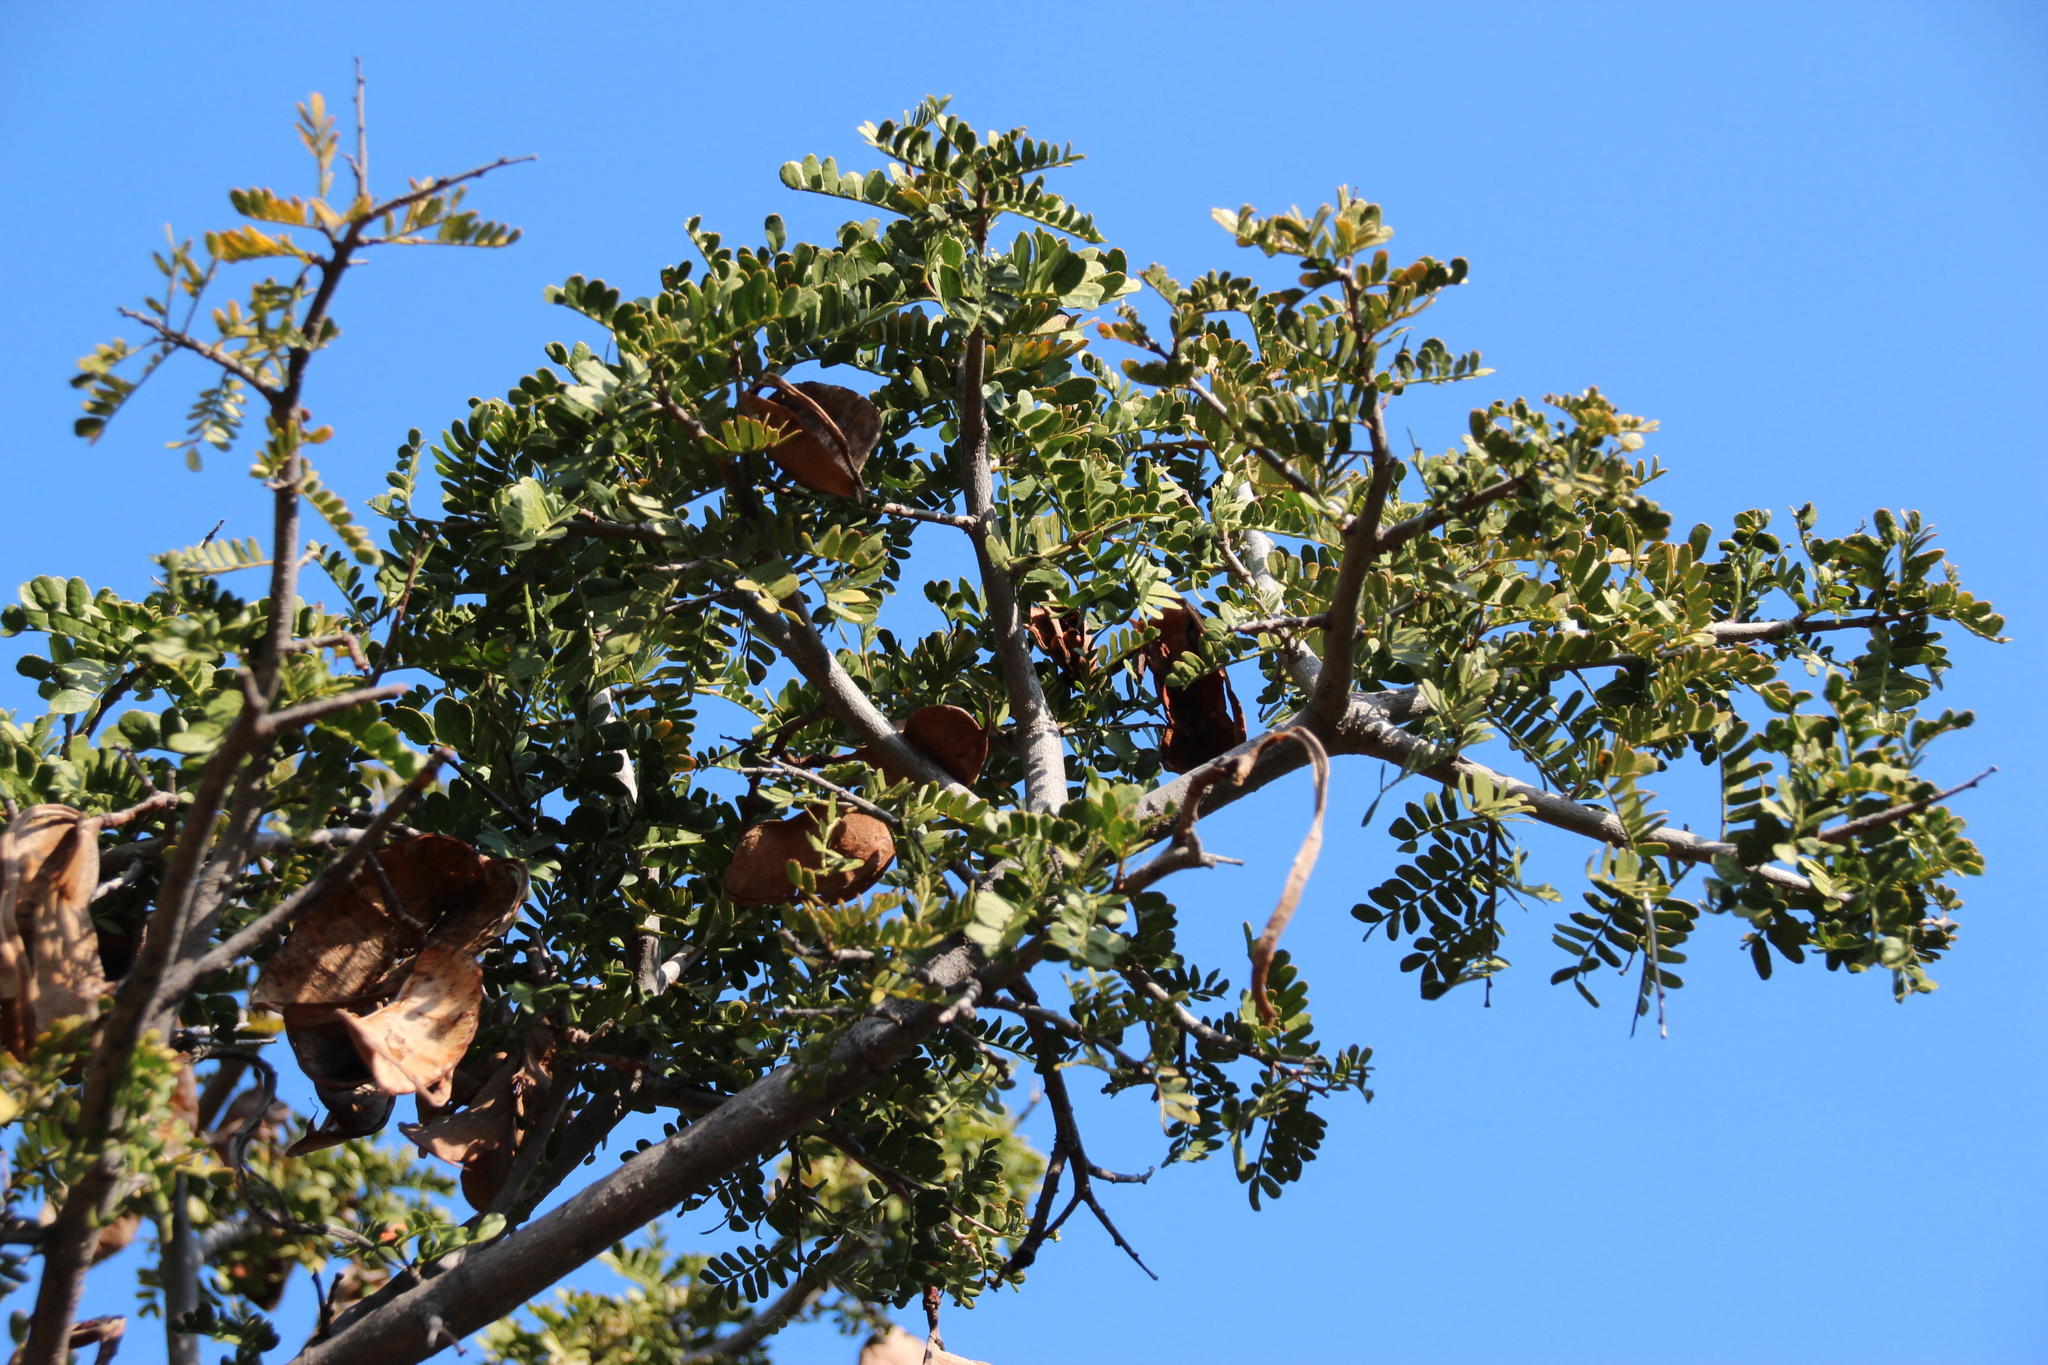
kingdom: Plantae
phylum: Tracheophyta
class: Magnoliopsida
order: Fabales
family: Fabaceae
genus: Schotia
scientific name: Schotia afra
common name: Hottentot's bean
